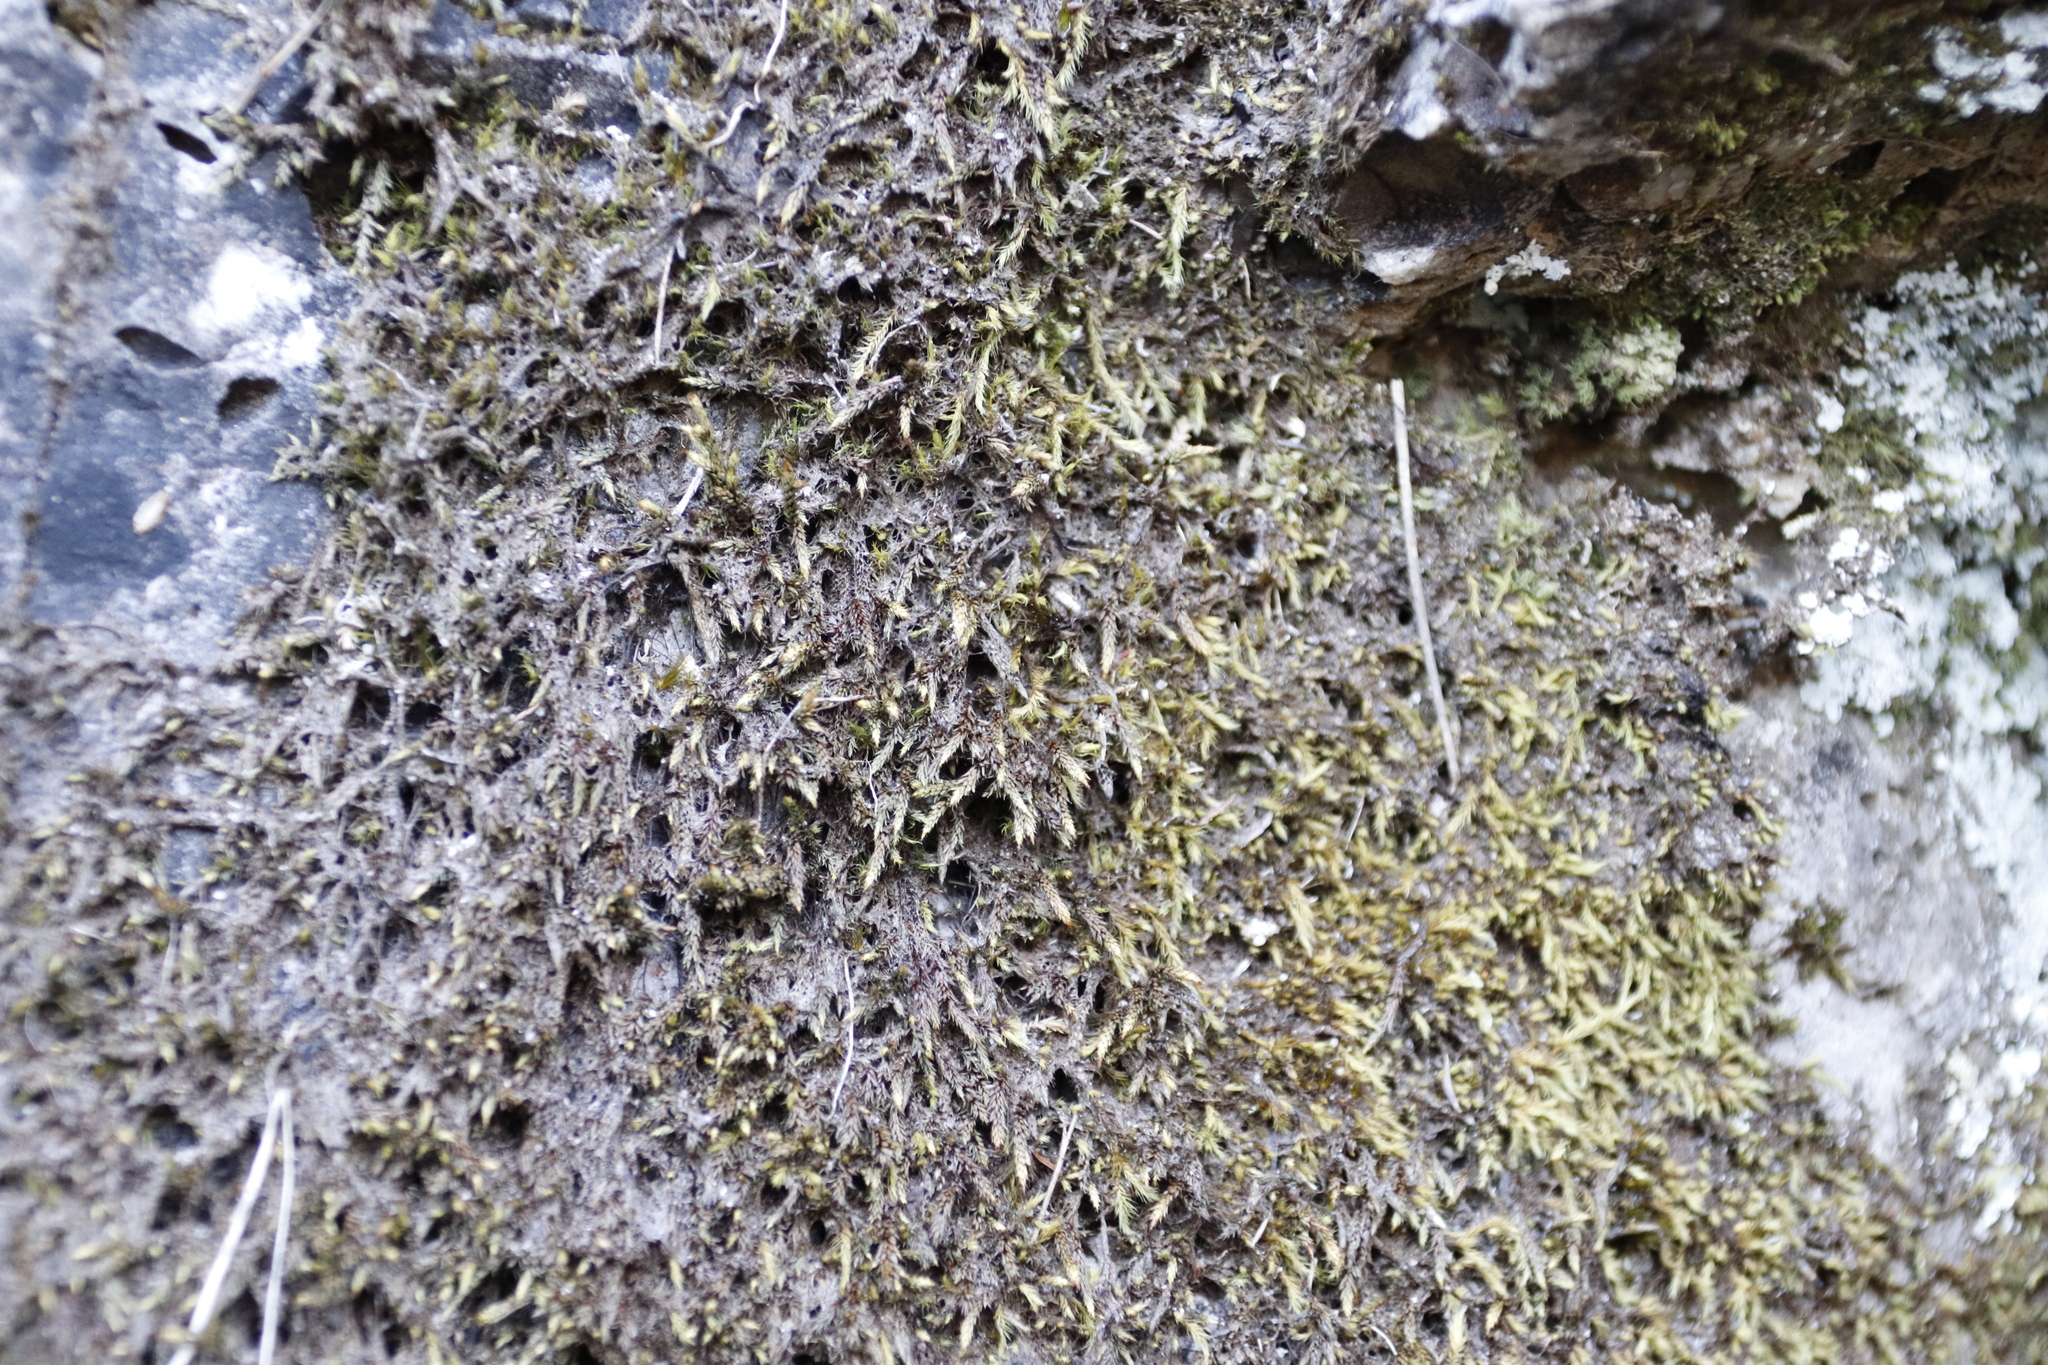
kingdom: Plantae
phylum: Bryophyta
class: Bryopsida
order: Hedwigiales
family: Hedwigiaceae
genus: Rhacocarpus
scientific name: Rhacocarpus purpurascens
